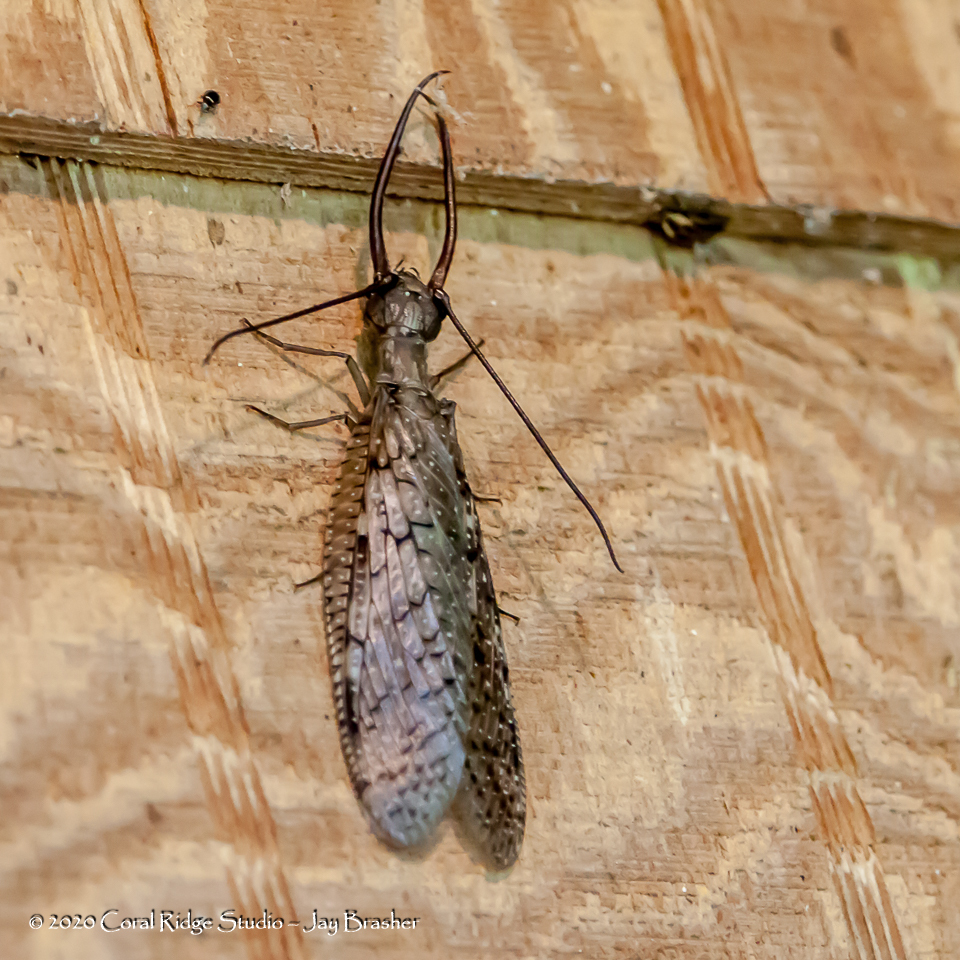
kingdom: Animalia
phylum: Arthropoda
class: Insecta
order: Megaloptera
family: Corydalidae
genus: Corydalus
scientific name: Corydalus cornutus
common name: Dobsonfly
